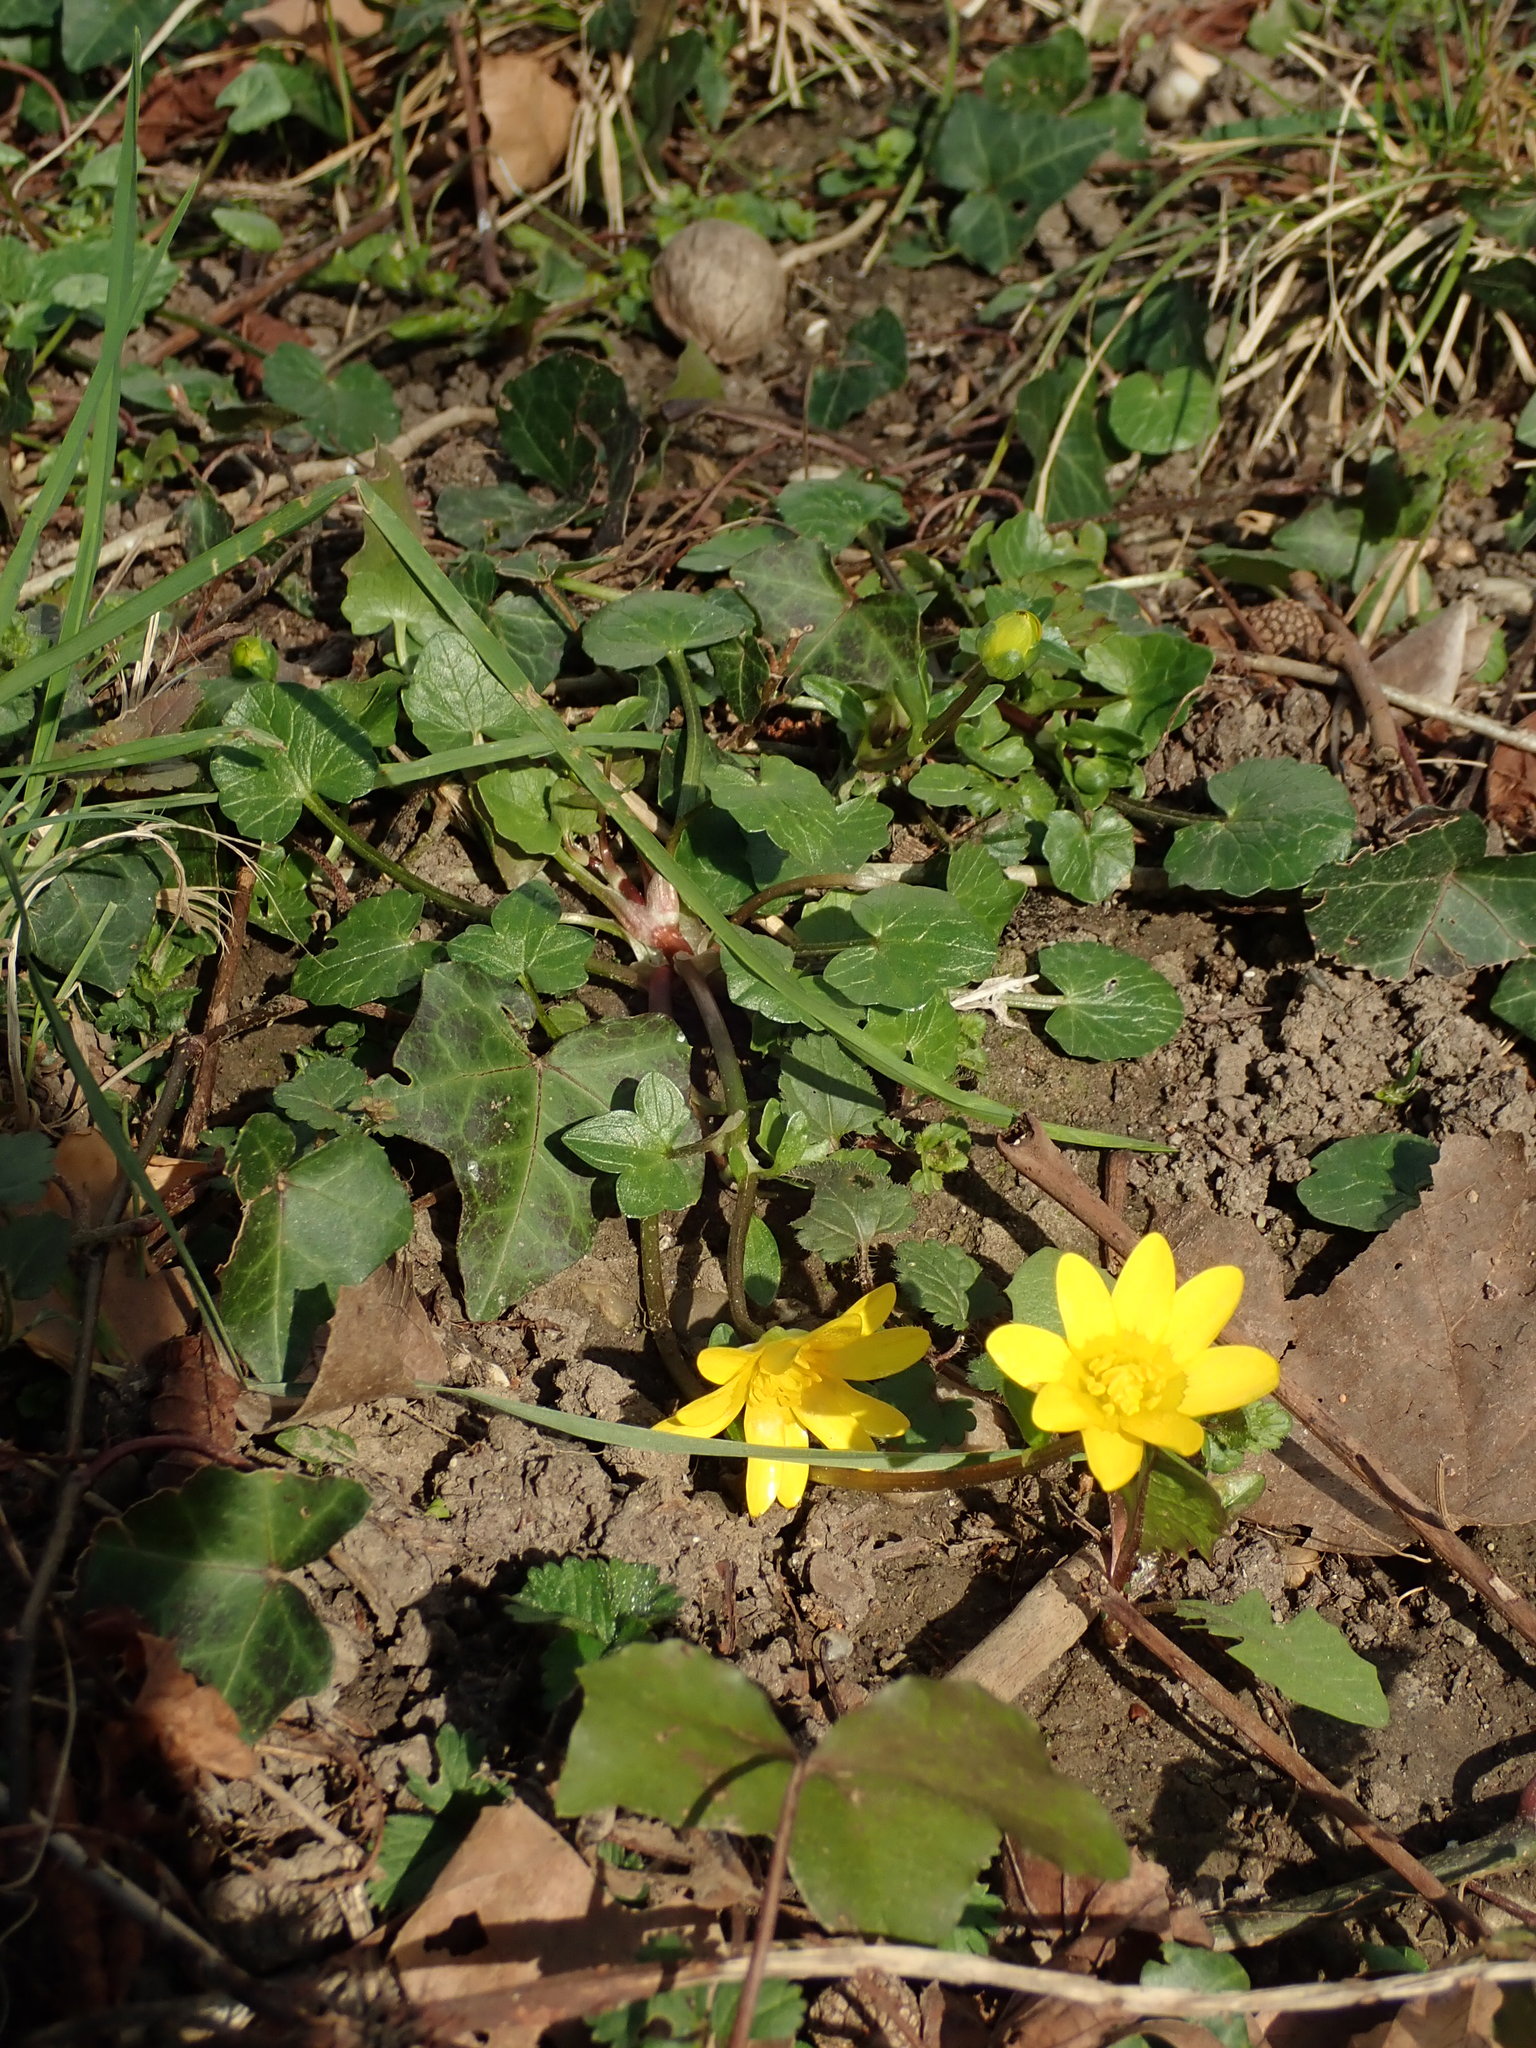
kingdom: Plantae
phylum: Tracheophyta
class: Magnoliopsida
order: Ranunculales
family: Ranunculaceae
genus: Ficaria
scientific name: Ficaria verna
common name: Lesser celandine
